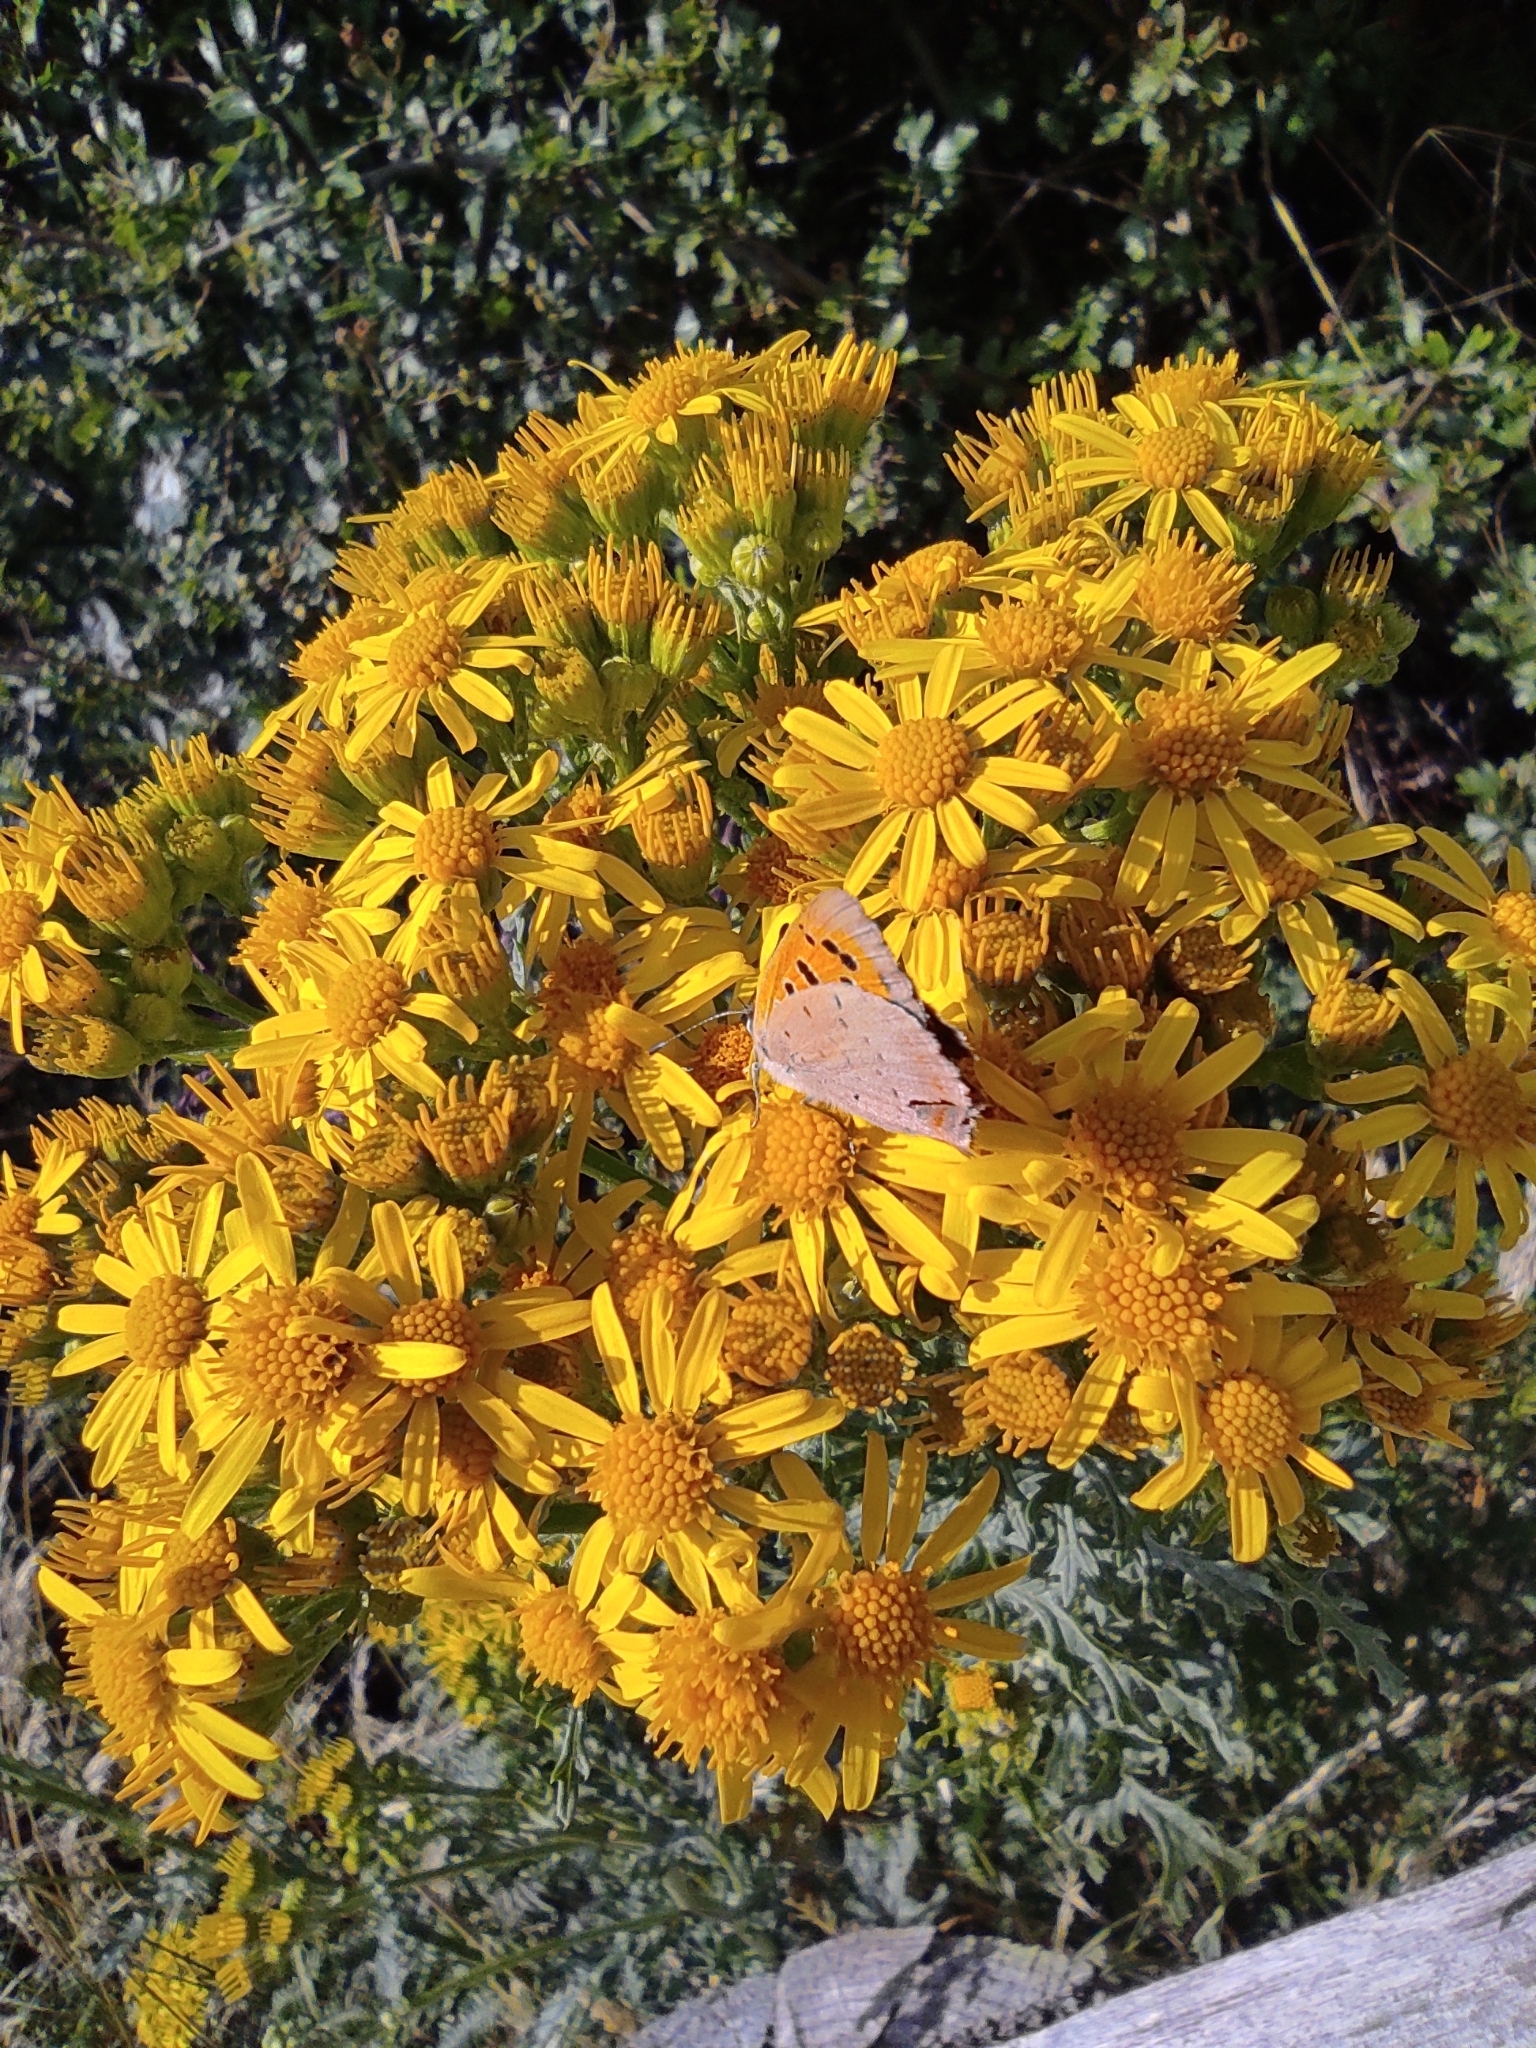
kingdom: Animalia
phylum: Arthropoda
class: Insecta
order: Lepidoptera
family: Lycaenidae
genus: Lycaena
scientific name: Lycaena phlaeas
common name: Small copper
